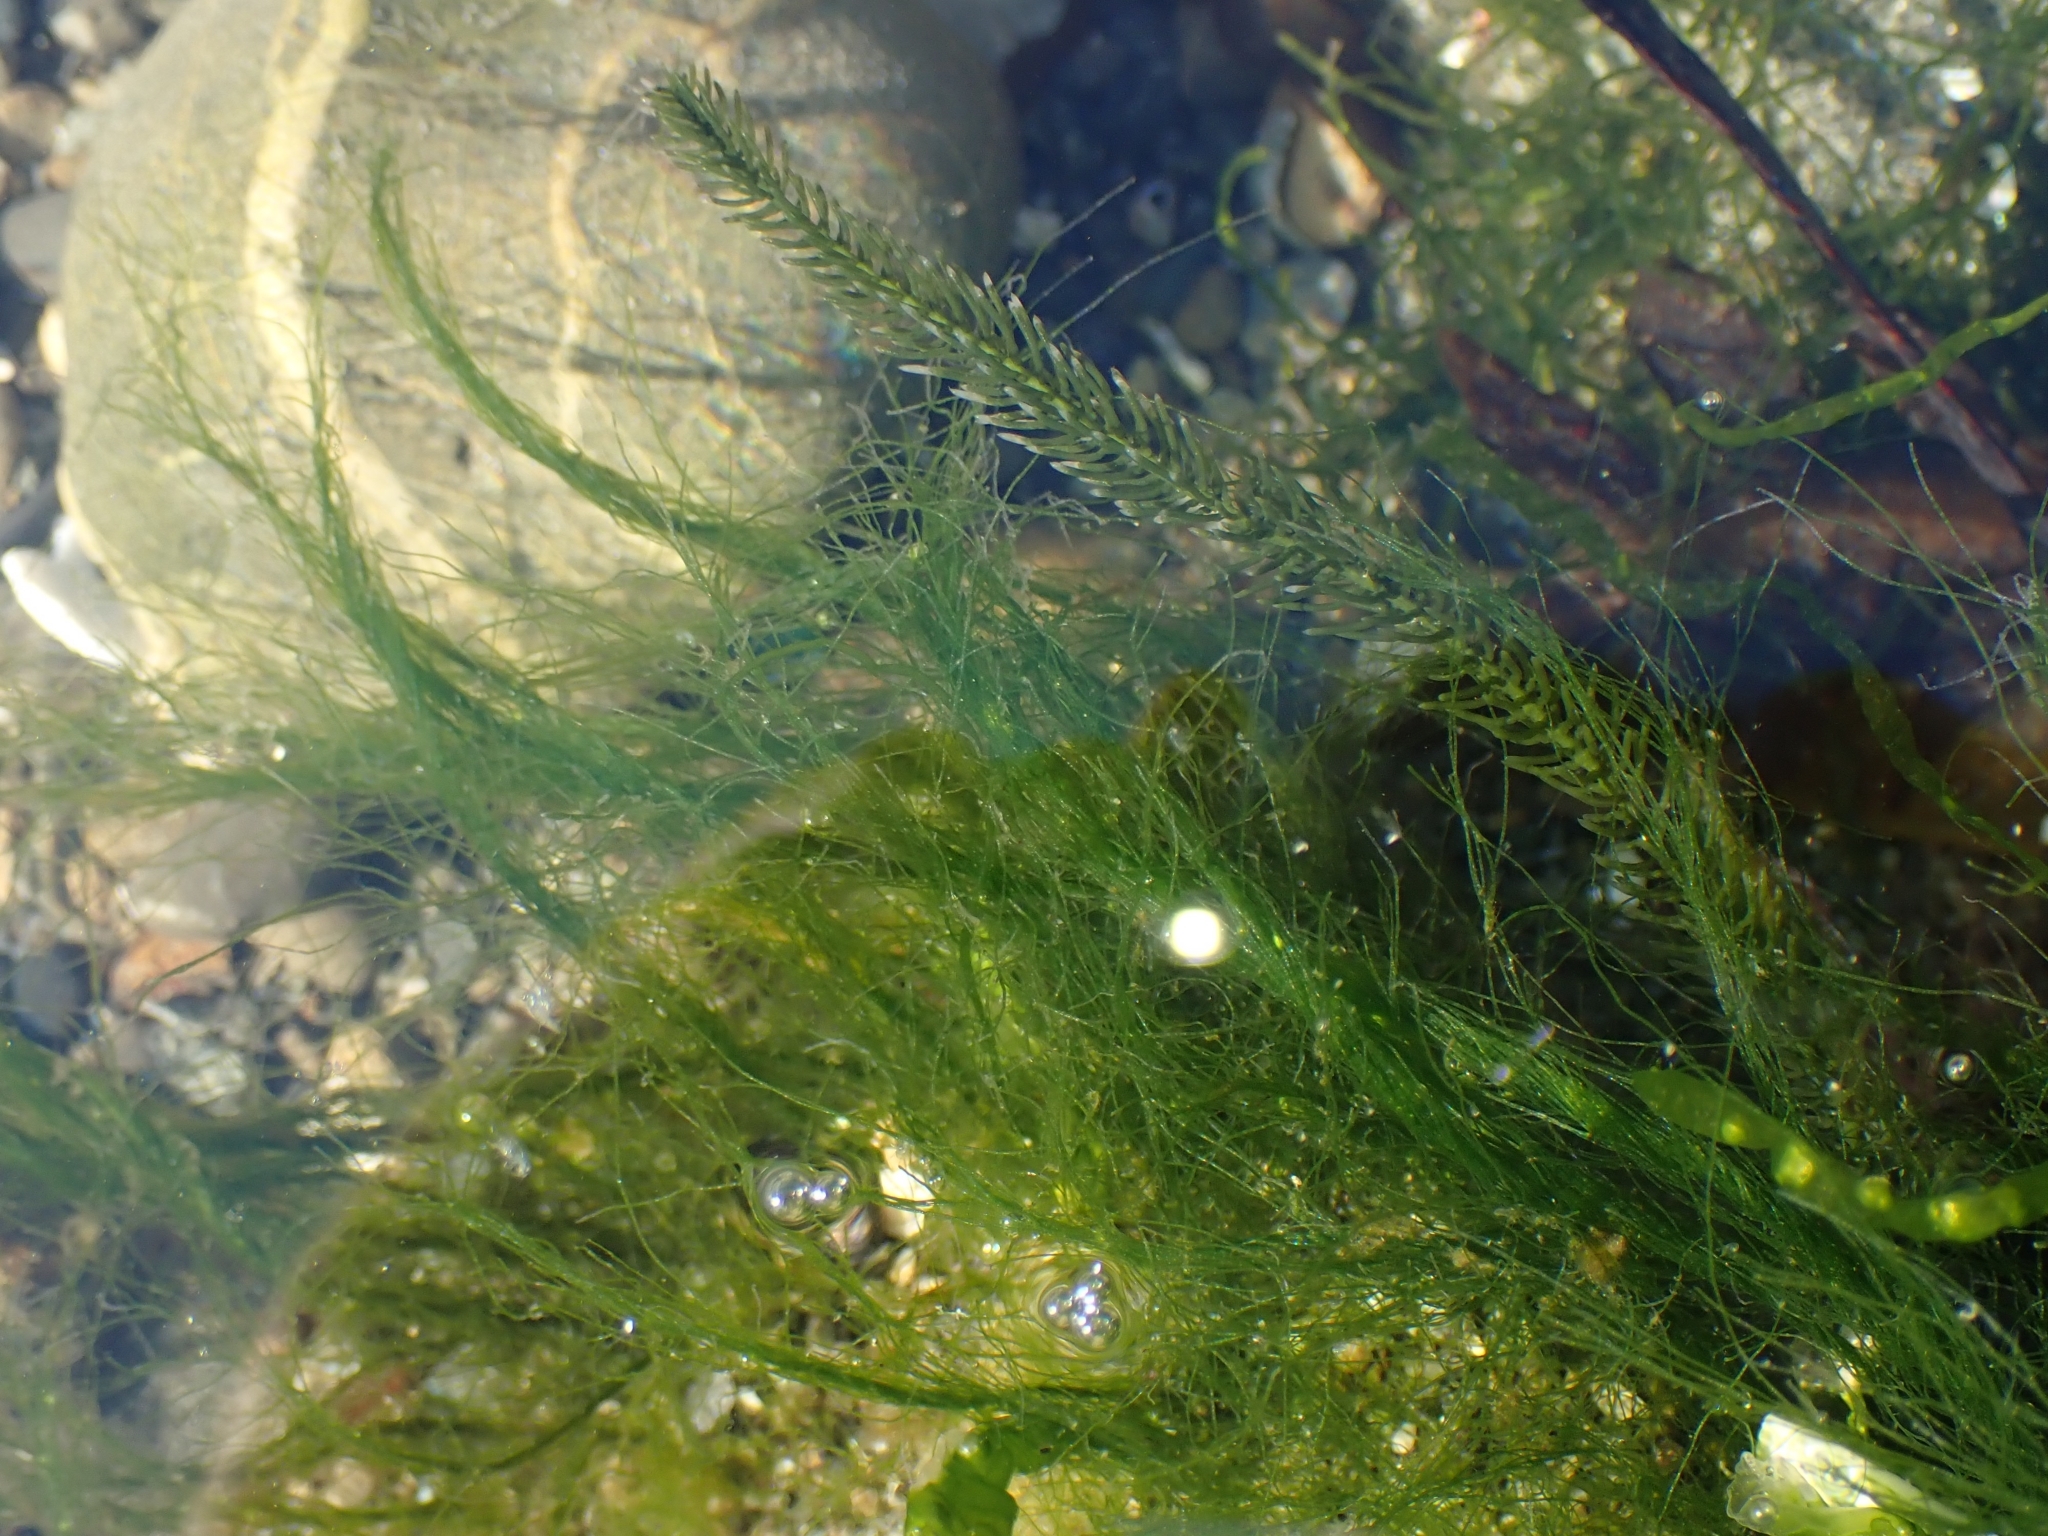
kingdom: Plantae
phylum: Chlorophyta
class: Ulvophyceae
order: Bryopsidales
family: Caulerpaceae
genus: Caulerpa
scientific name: Caulerpa brownii
